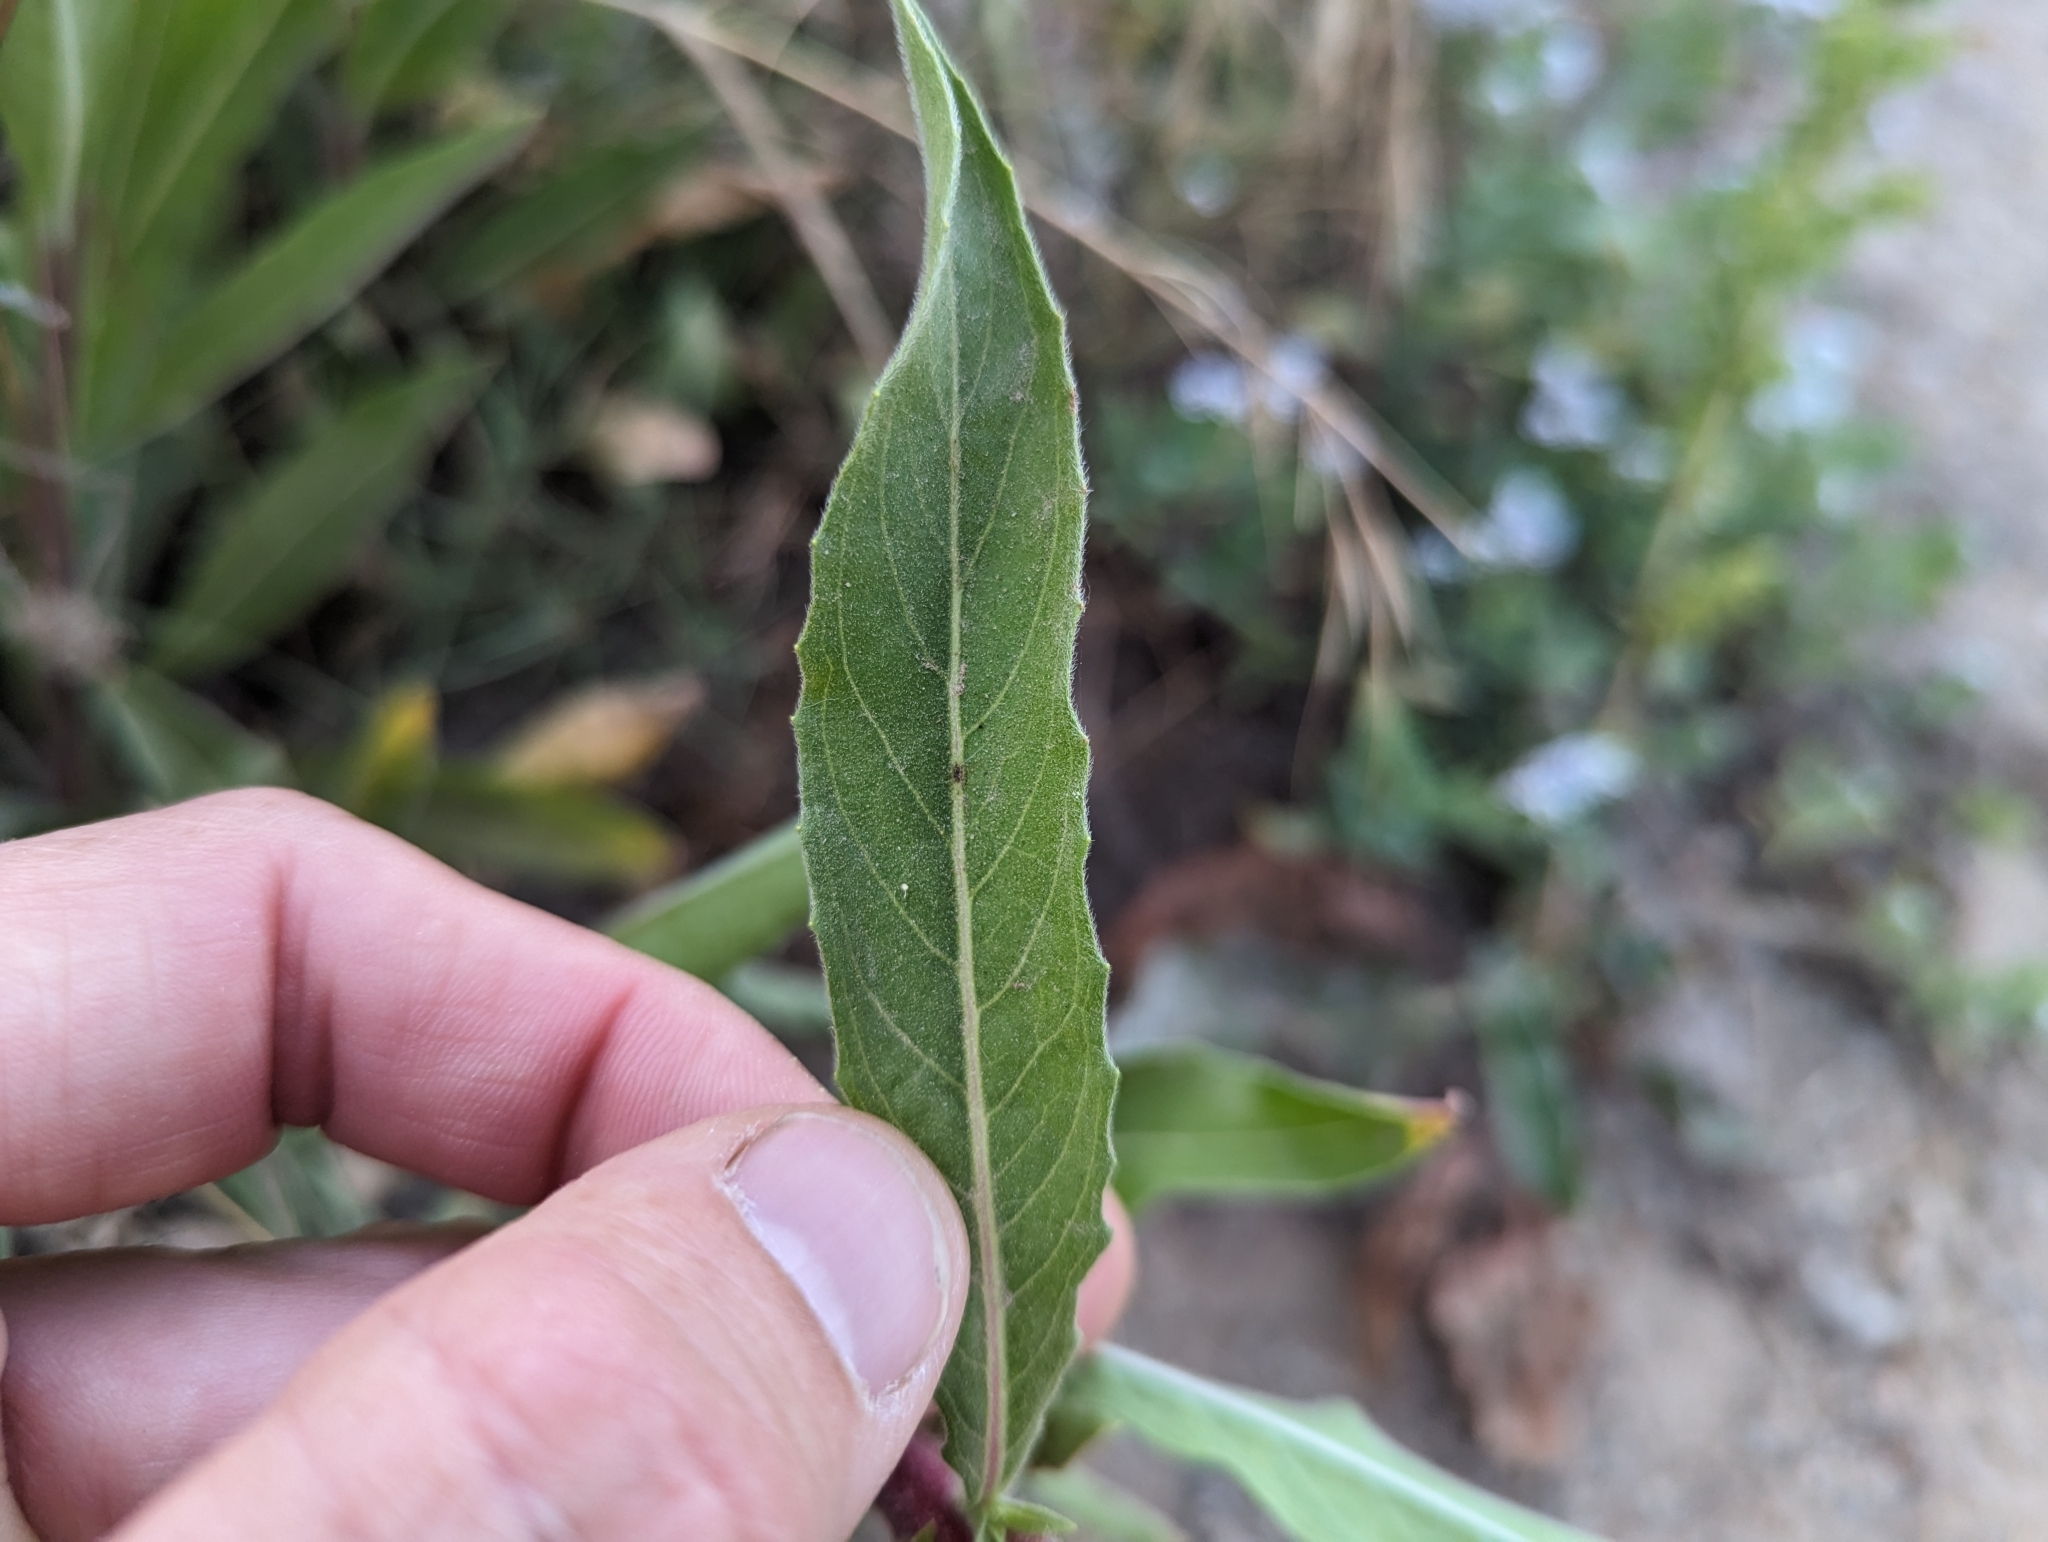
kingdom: Plantae
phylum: Tracheophyta
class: Magnoliopsida
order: Myrtales
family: Onagraceae
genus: Oenothera
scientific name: Oenothera elata
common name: Hooker's evening-primrose
